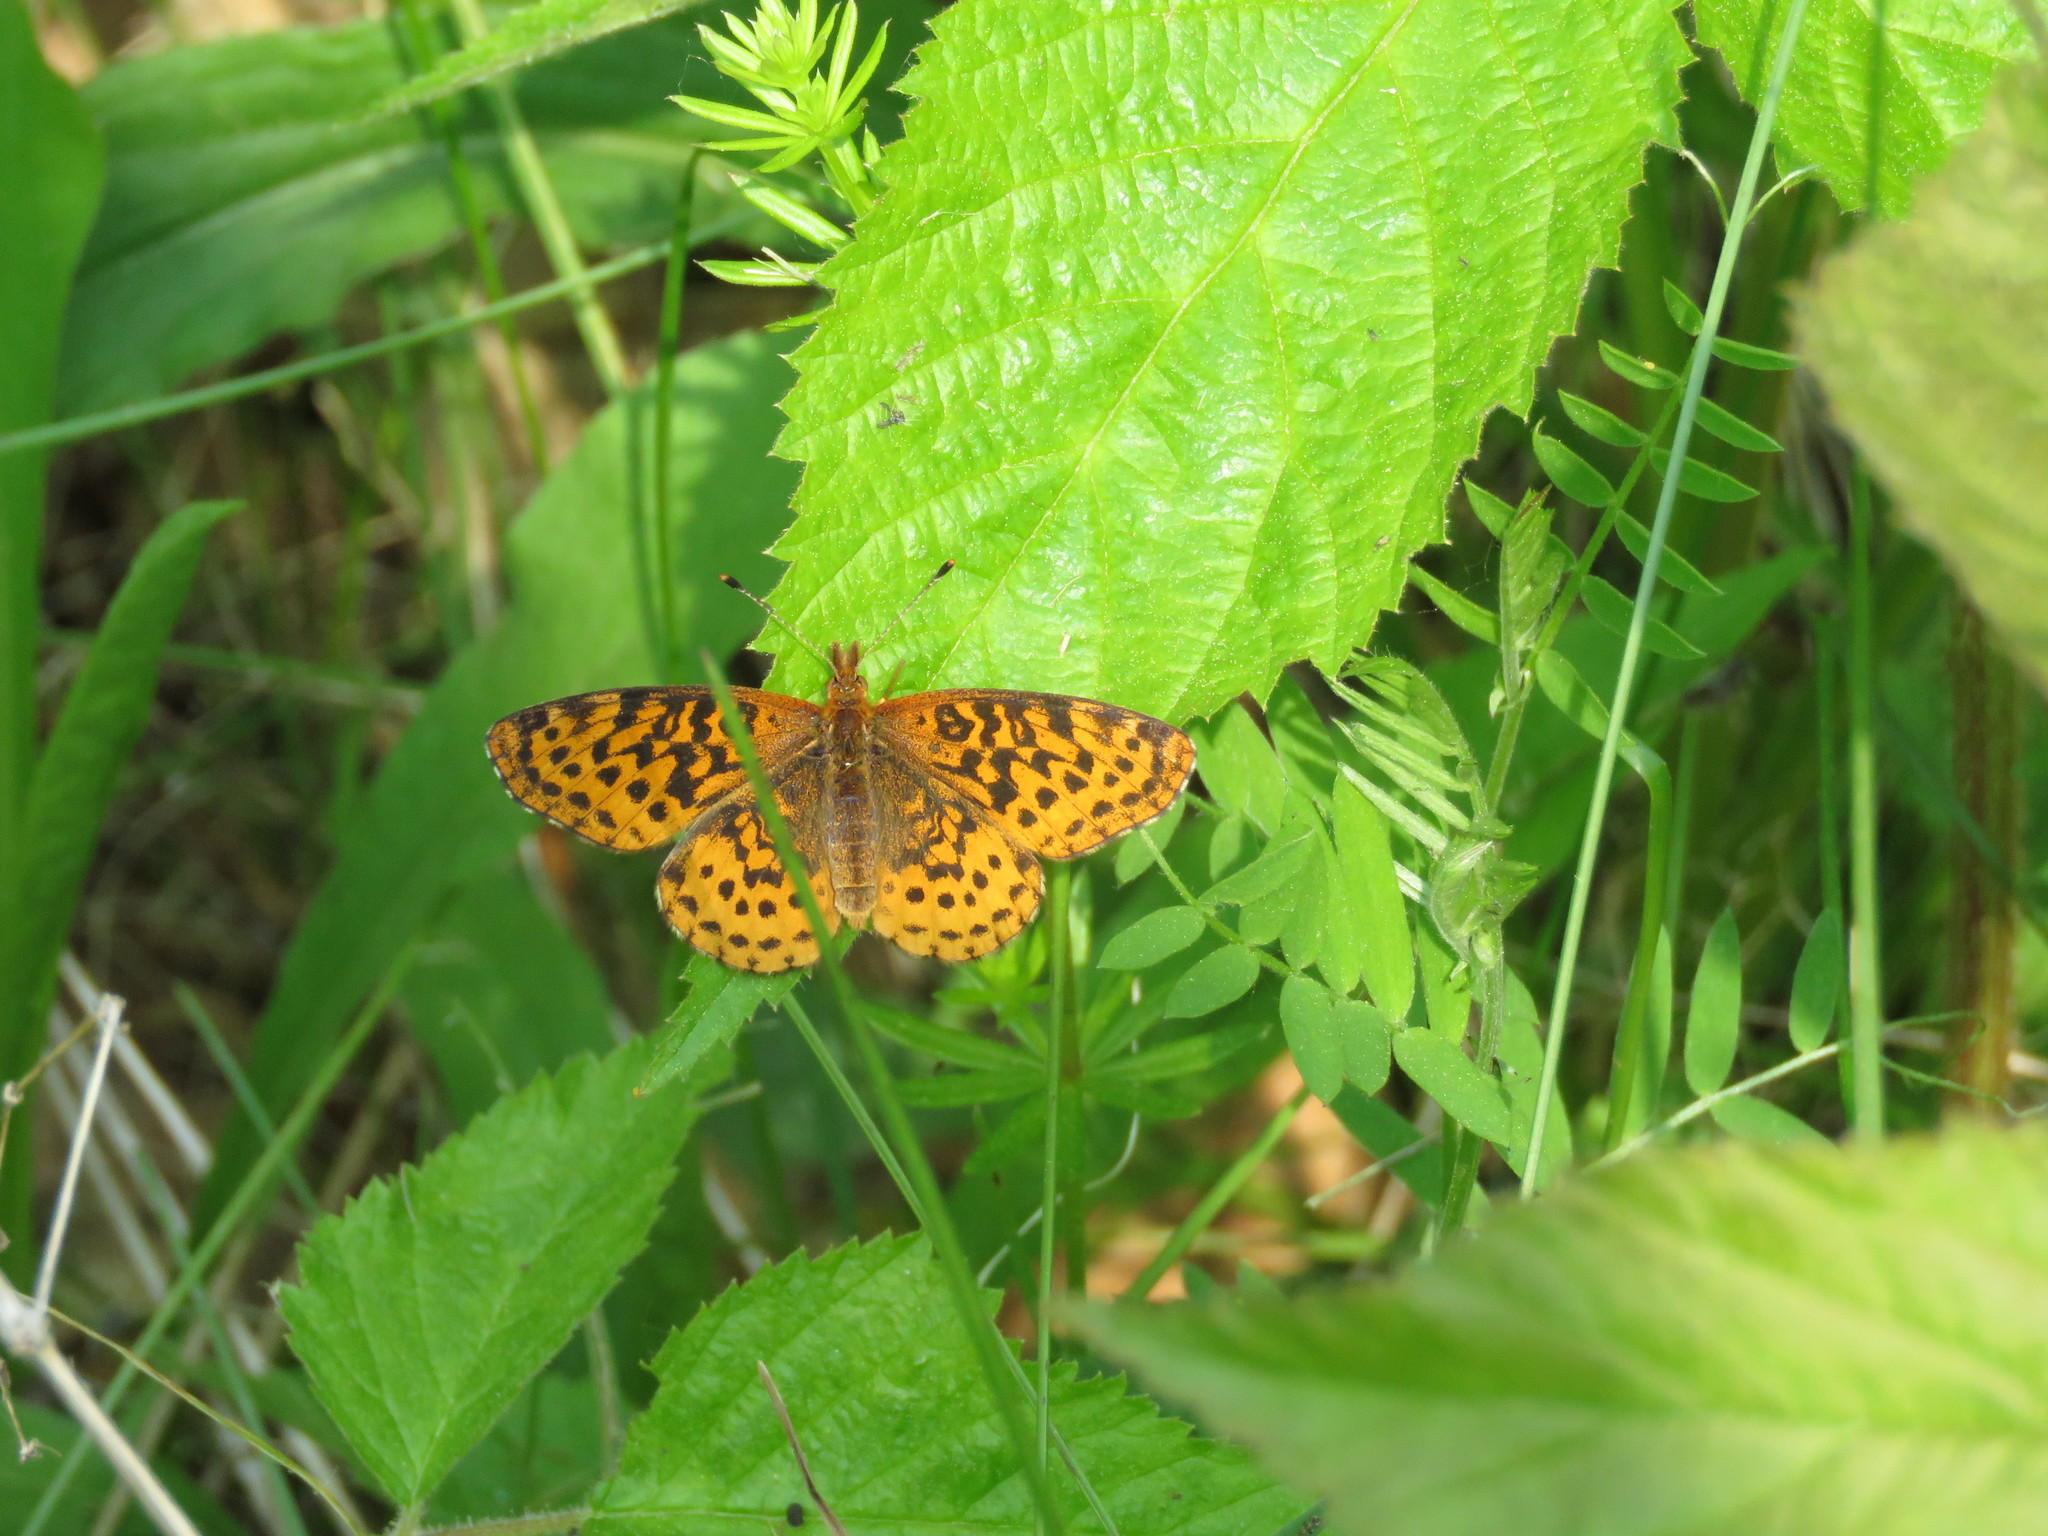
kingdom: Animalia
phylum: Arthropoda
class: Insecta
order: Lepidoptera
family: Nymphalidae
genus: Clossiana
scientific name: Clossiana toddi
